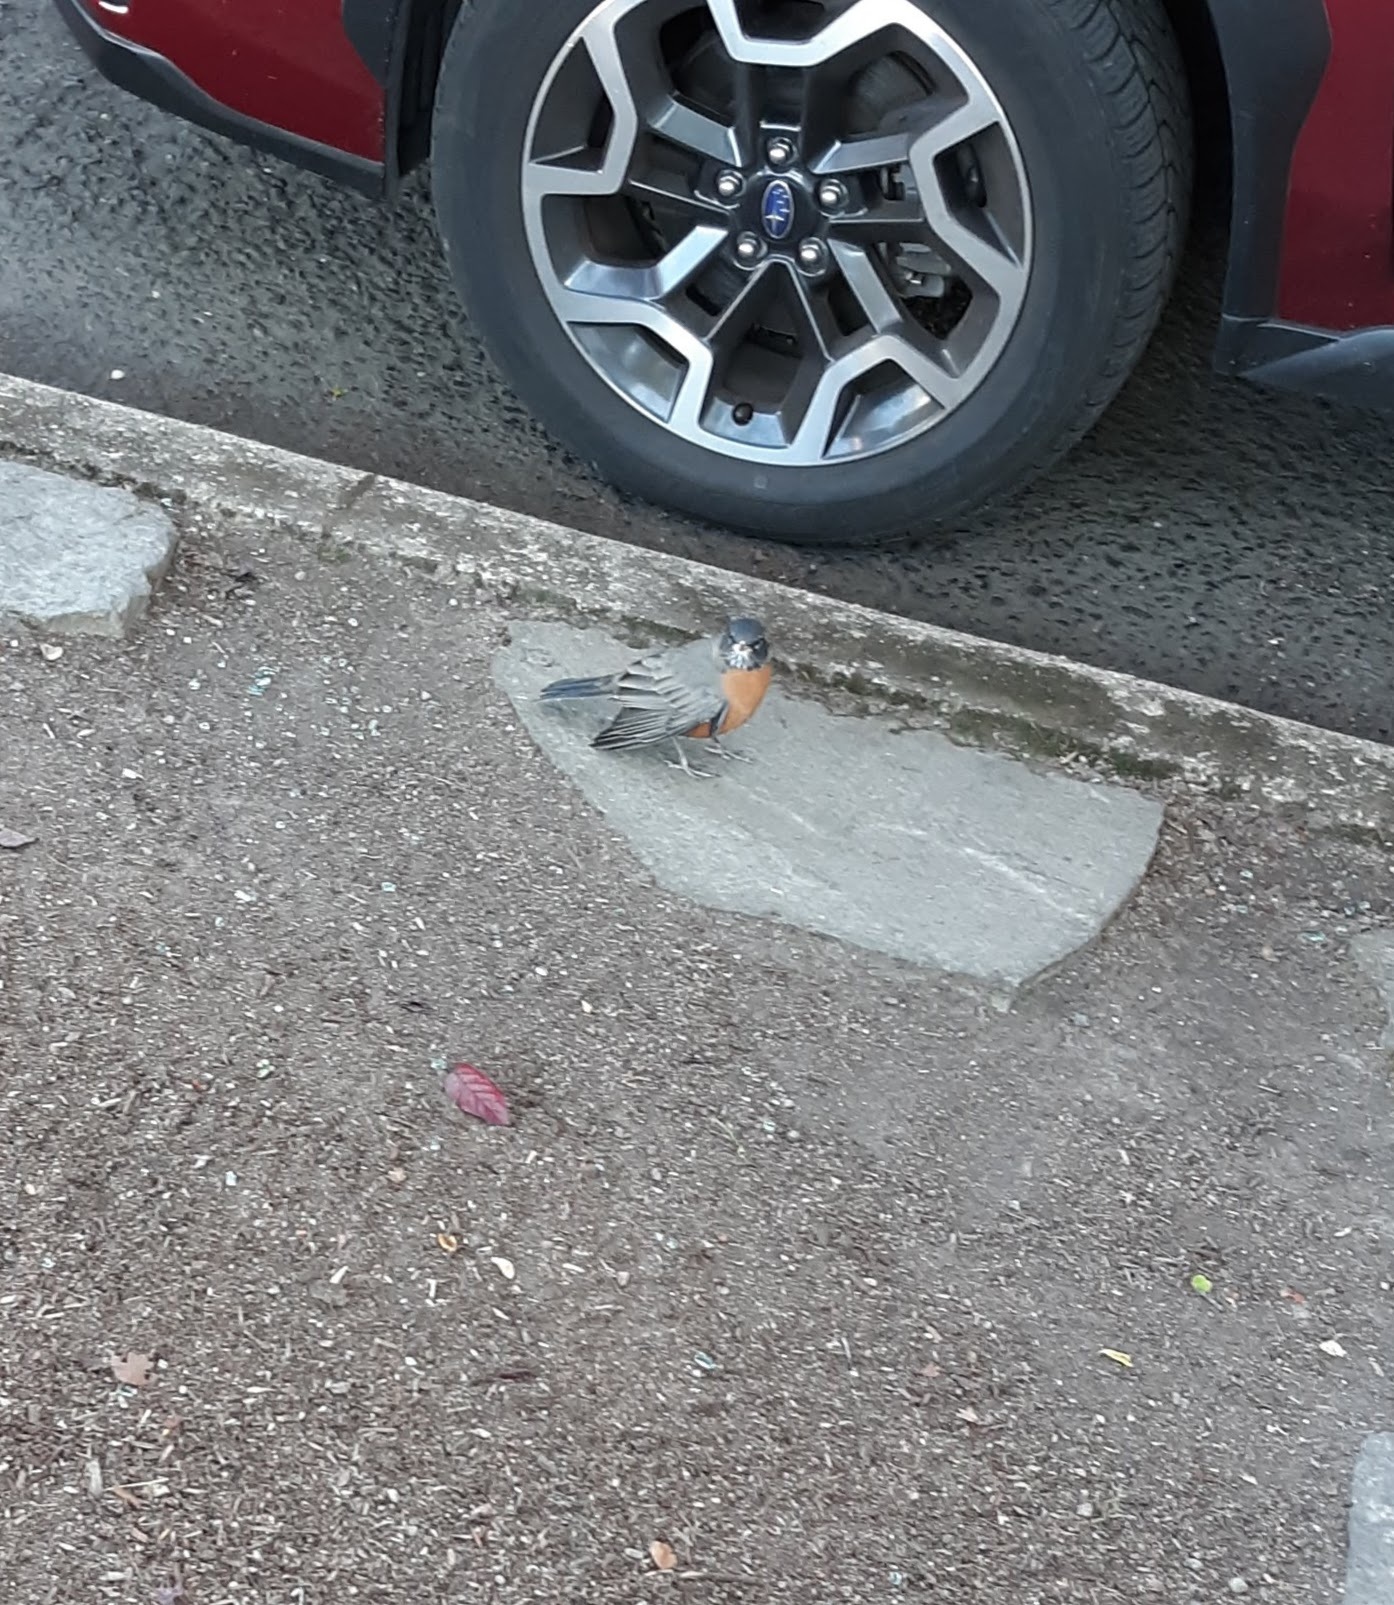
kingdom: Animalia
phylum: Chordata
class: Aves
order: Passeriformes
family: Turdidae
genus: Turdus
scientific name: Turdus migratorius
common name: American robin
